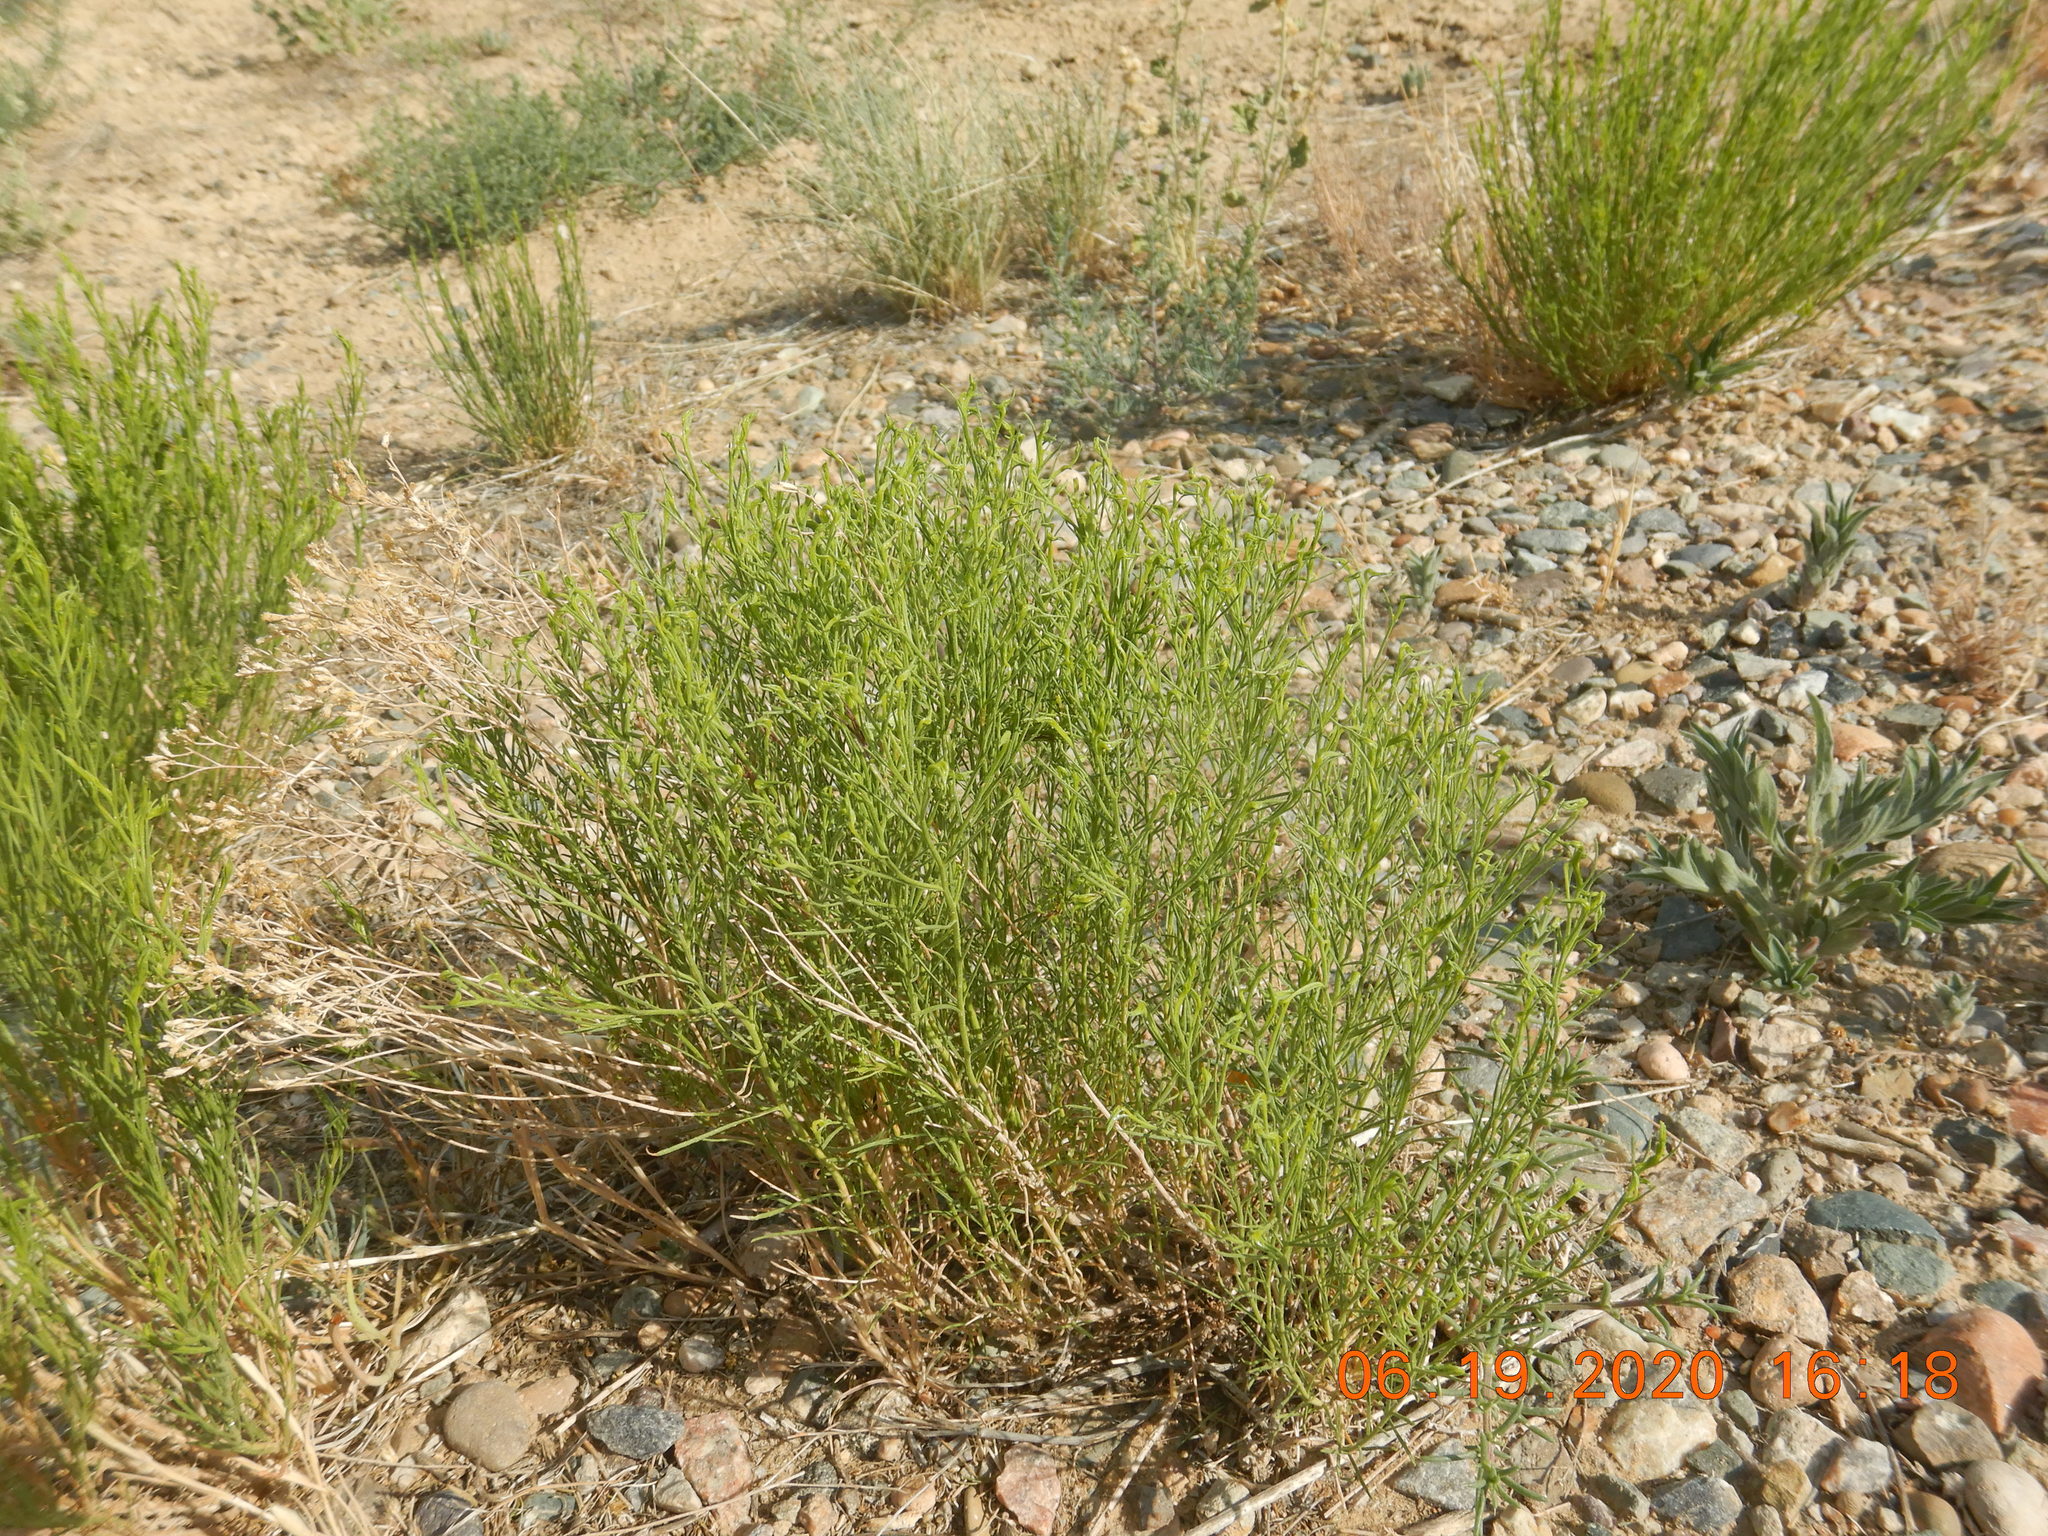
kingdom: Plantae
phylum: Tracheophyta
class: Magnoliopsida
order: Asterales
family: Asteraceae
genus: Gutierrezia
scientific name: Gutierrezia sarothrae
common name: Broom snakeweed
